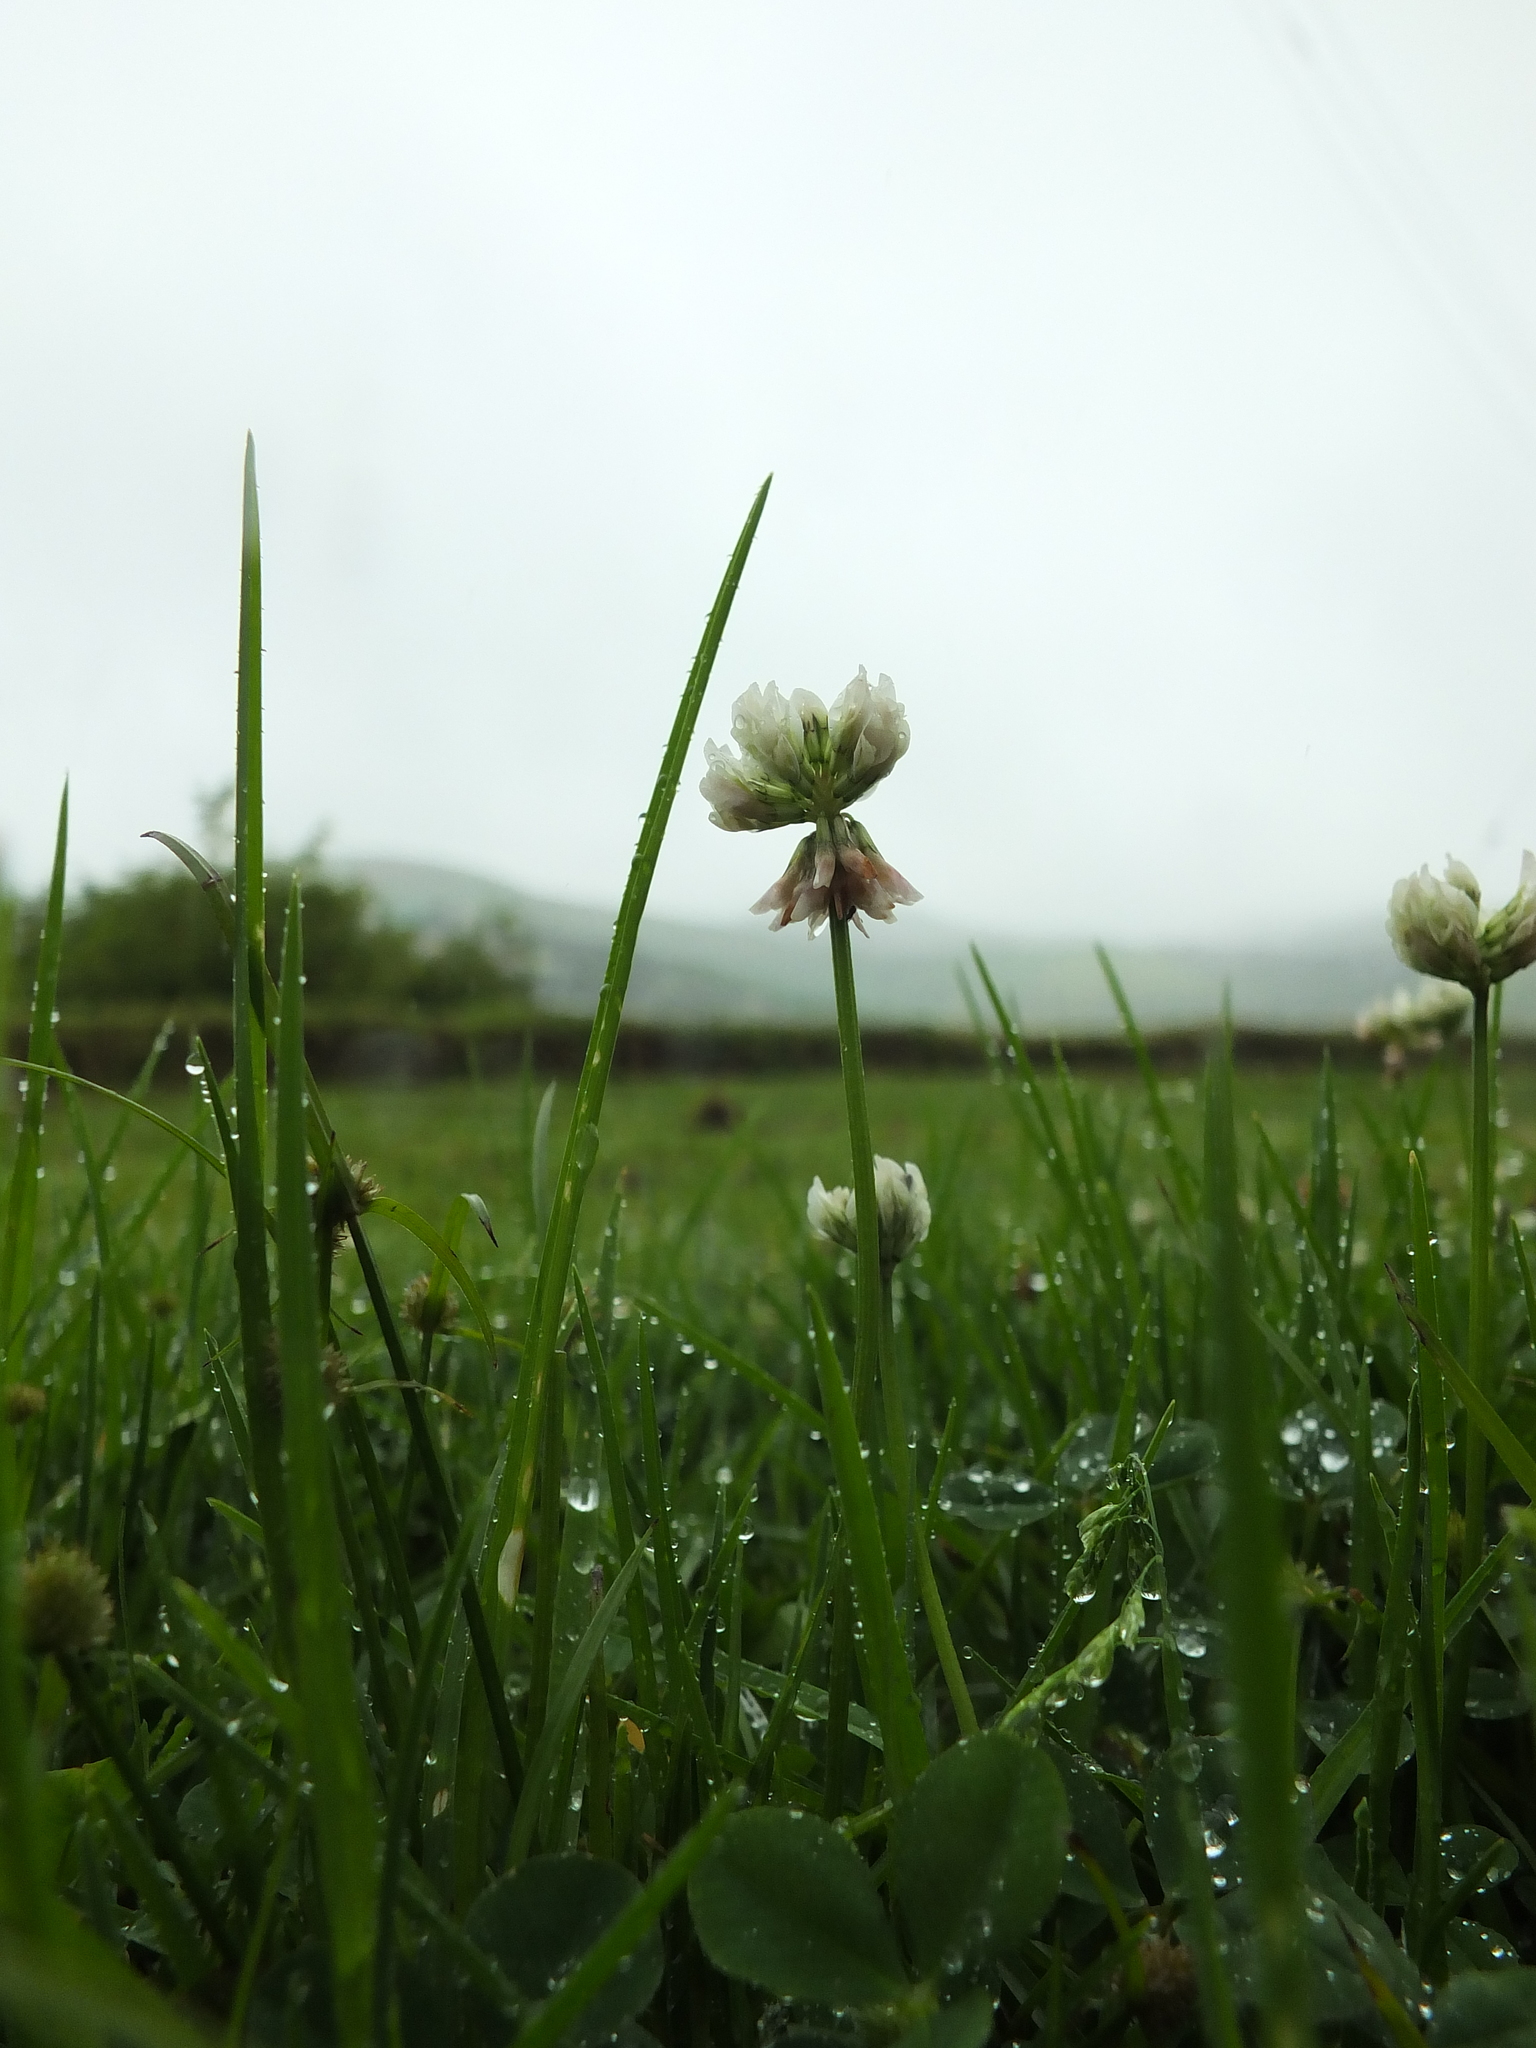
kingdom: Plantae
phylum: Tracheophyta
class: Magnoliopsida
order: Fabales
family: Fabaceae
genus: Trifolium
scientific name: Trifolium repens
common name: White clover
